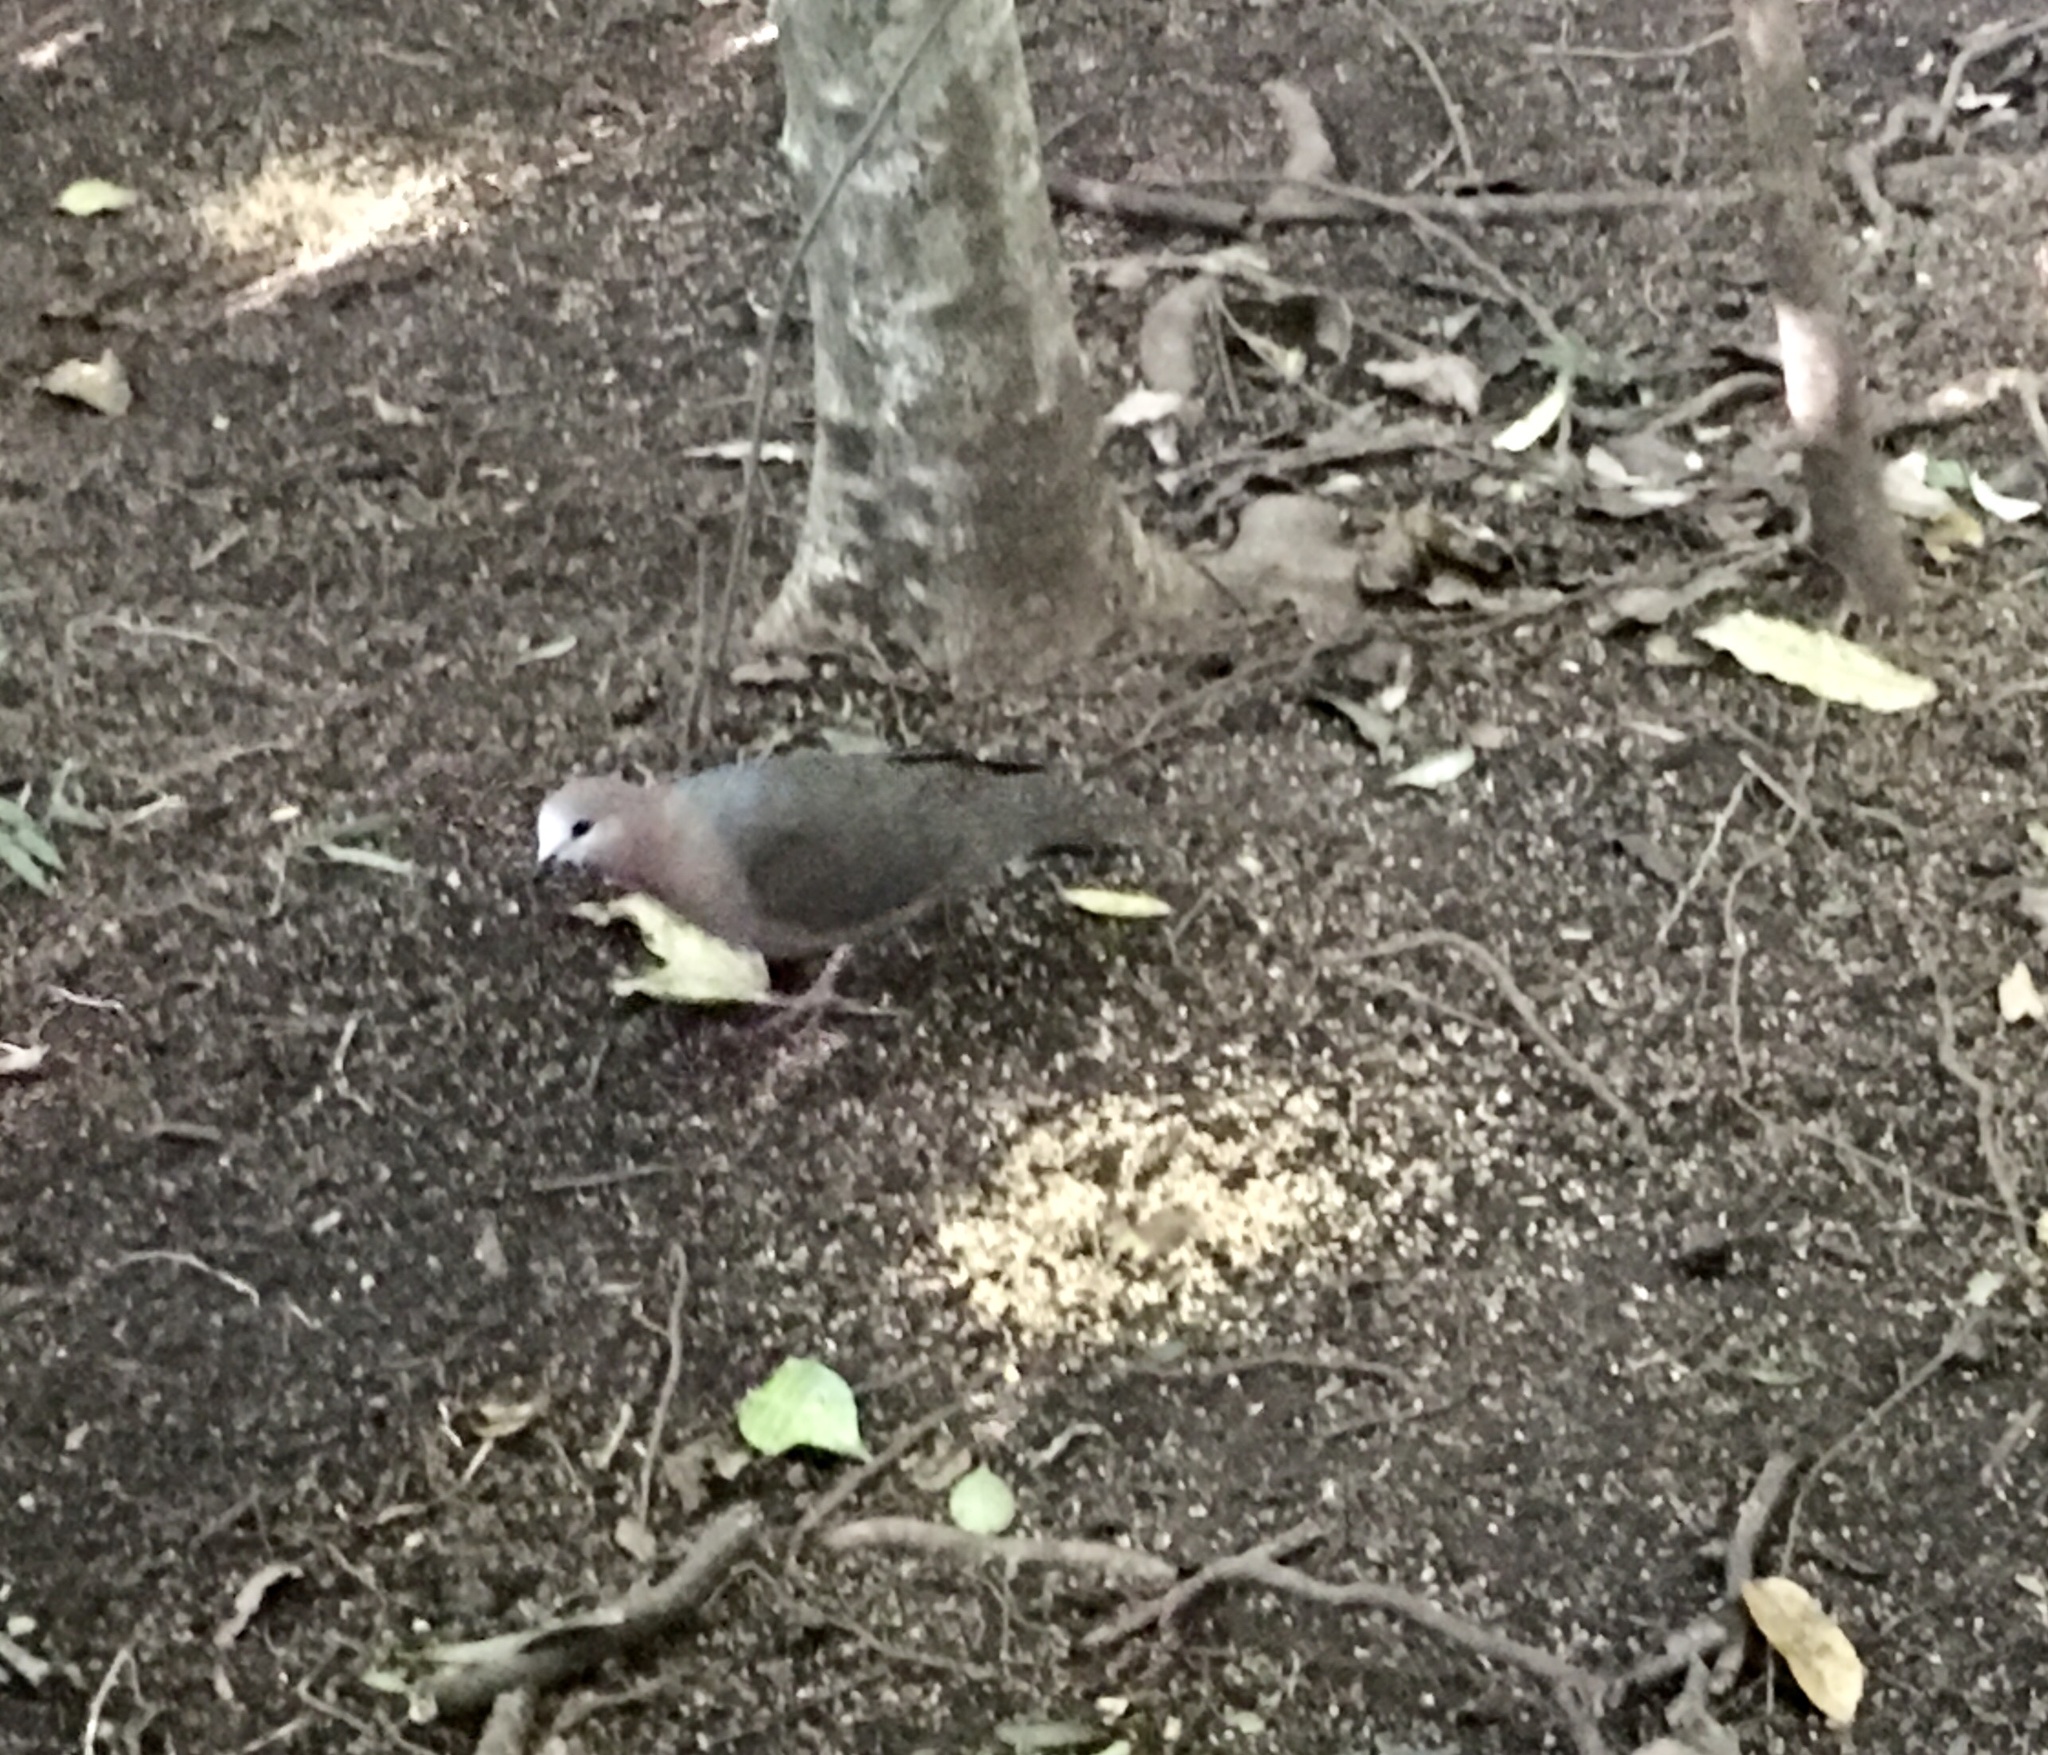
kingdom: Animalia
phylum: Chordata
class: Aves
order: Columbiformes
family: Columbidae
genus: Columba
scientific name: Columba larvata
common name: Lemon dove
